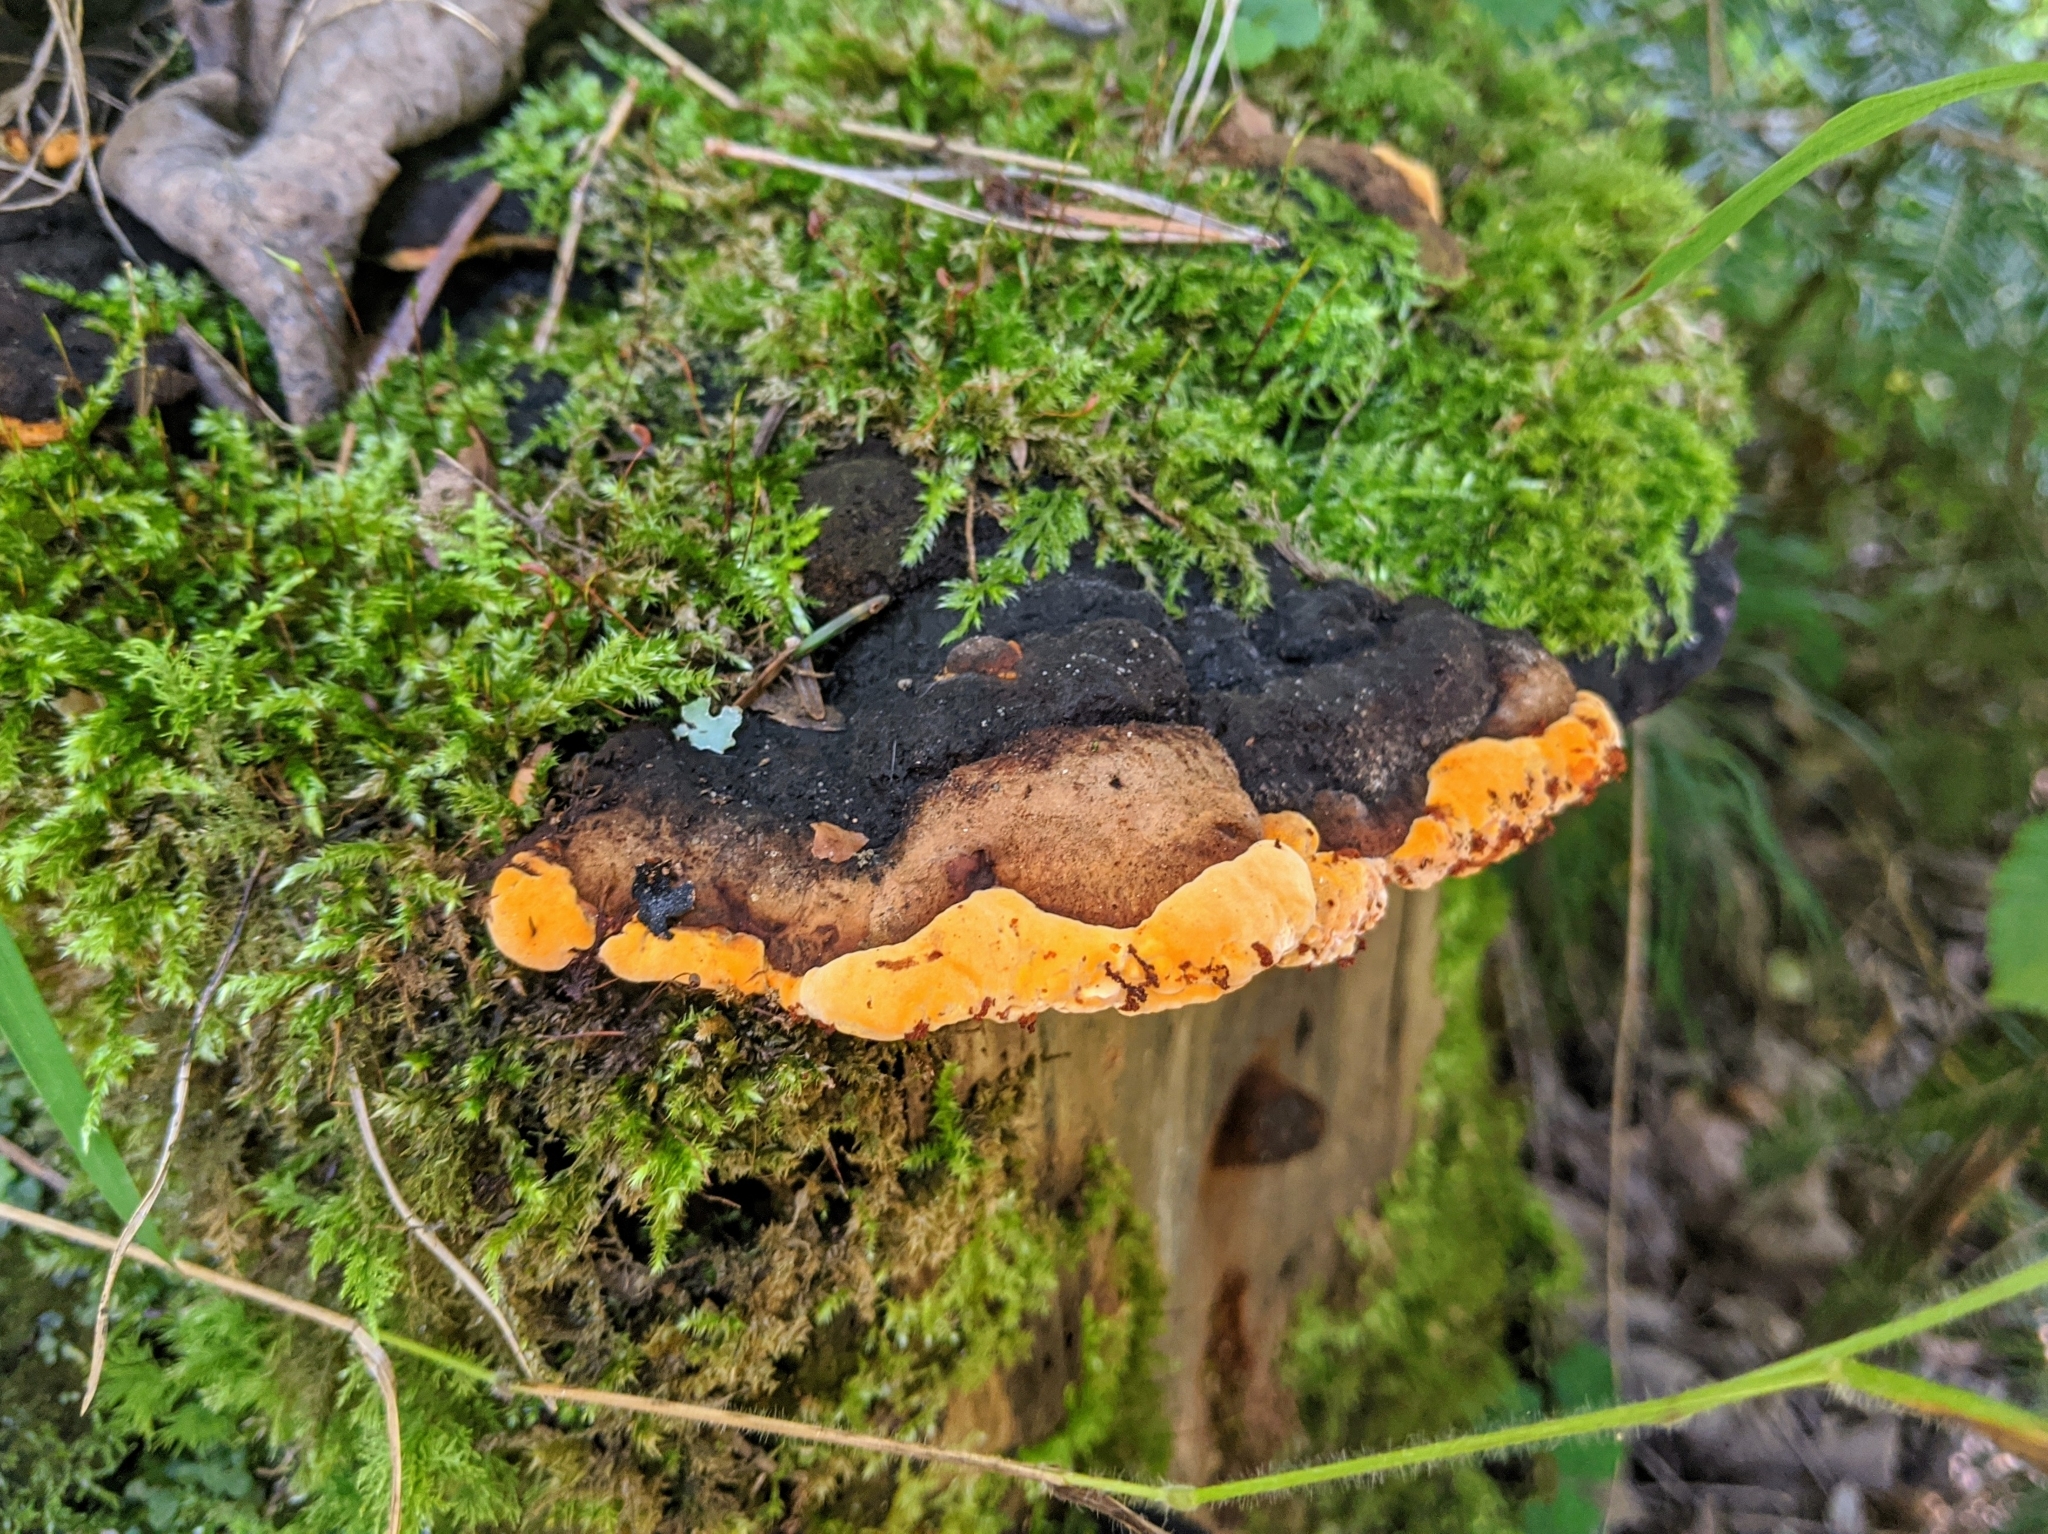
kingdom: Fungi
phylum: Basidiomycota
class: Agaricomycetes
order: Gloeophyllales
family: Gloeophyllaceae
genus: Gloeophyllum
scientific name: Gloeophyllum odoratum
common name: Anise mazegill
